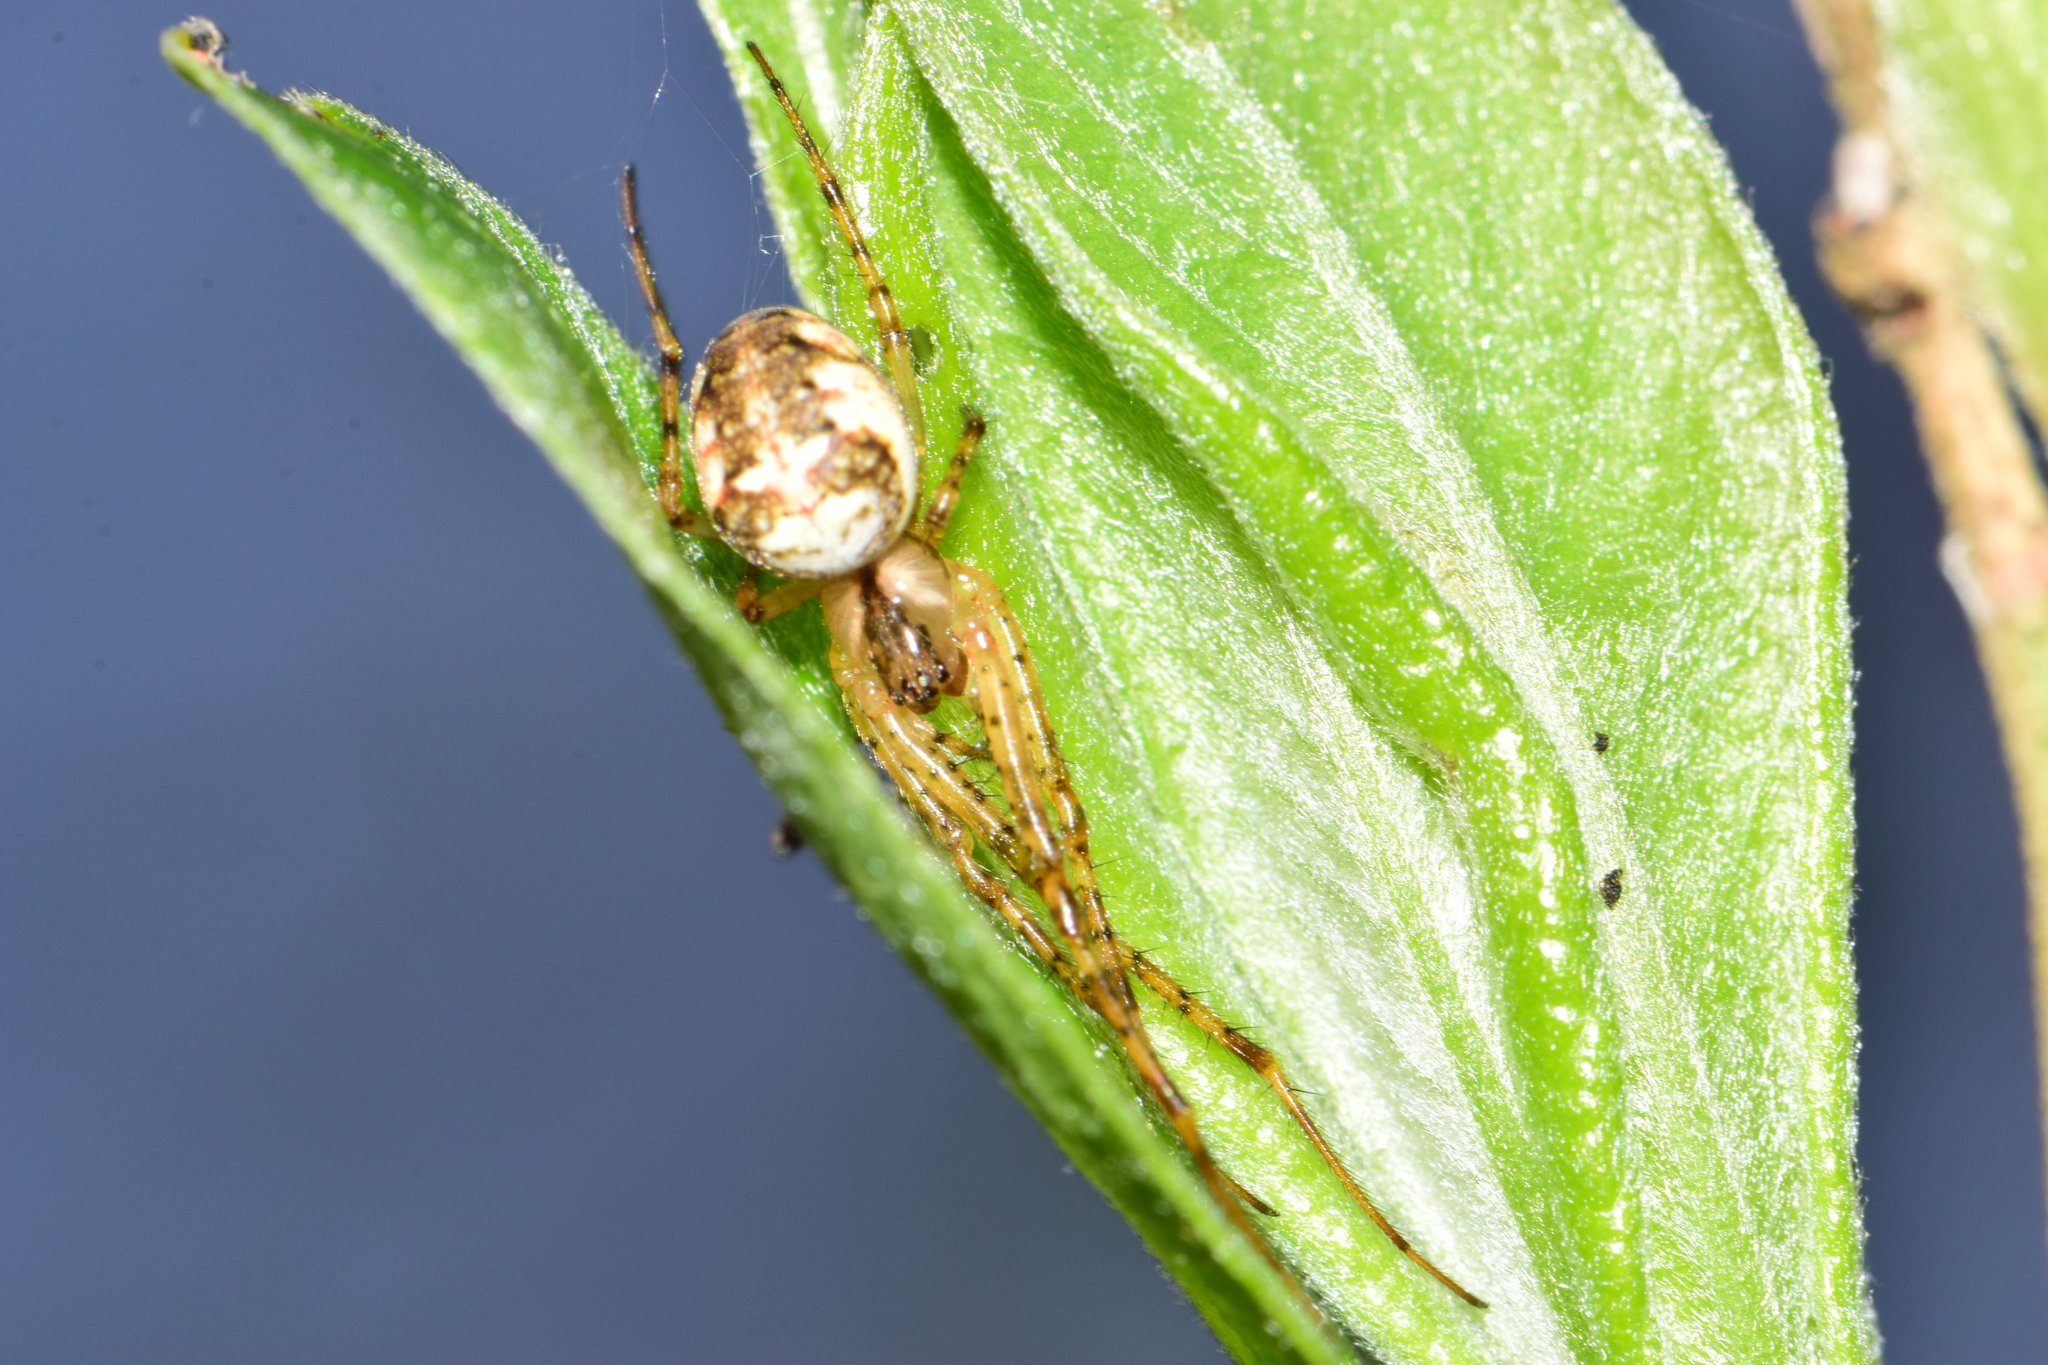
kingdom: Animalia
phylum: Arthropoda
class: Arachnida
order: Araneae
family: Tetragnathidae
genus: Metellina
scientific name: Metellina
